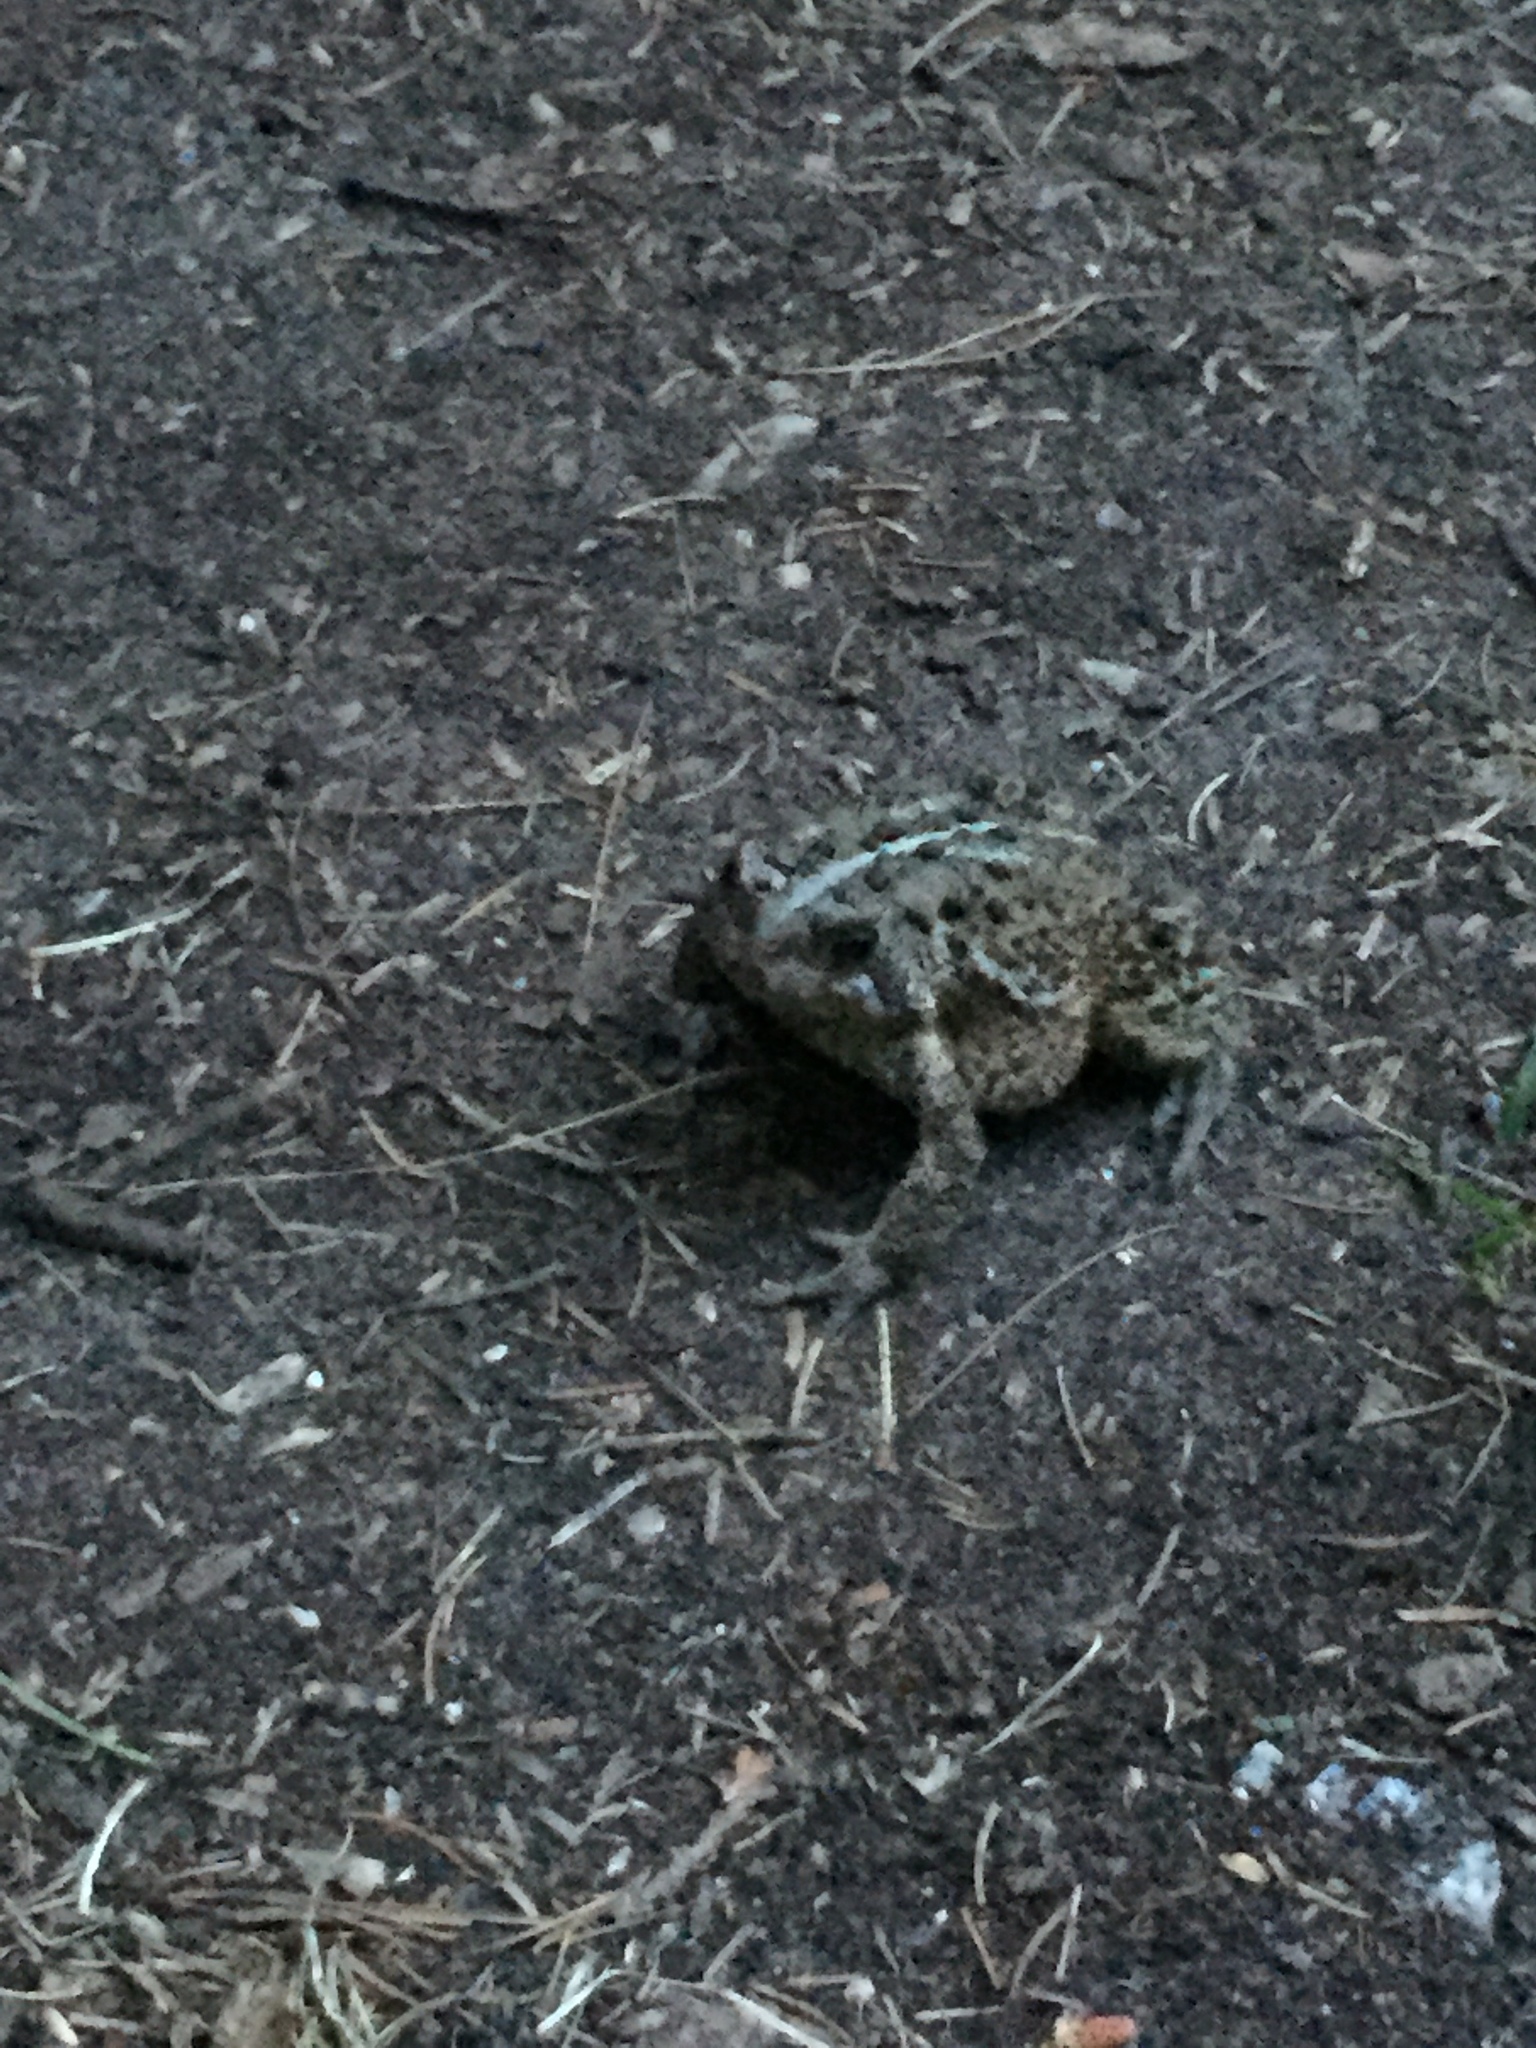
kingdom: Animalia
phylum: Chordata
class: Amphibia
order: Anura
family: Bufonidae
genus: Anaxyrus
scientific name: Anaxyrus americanus
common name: American toad
